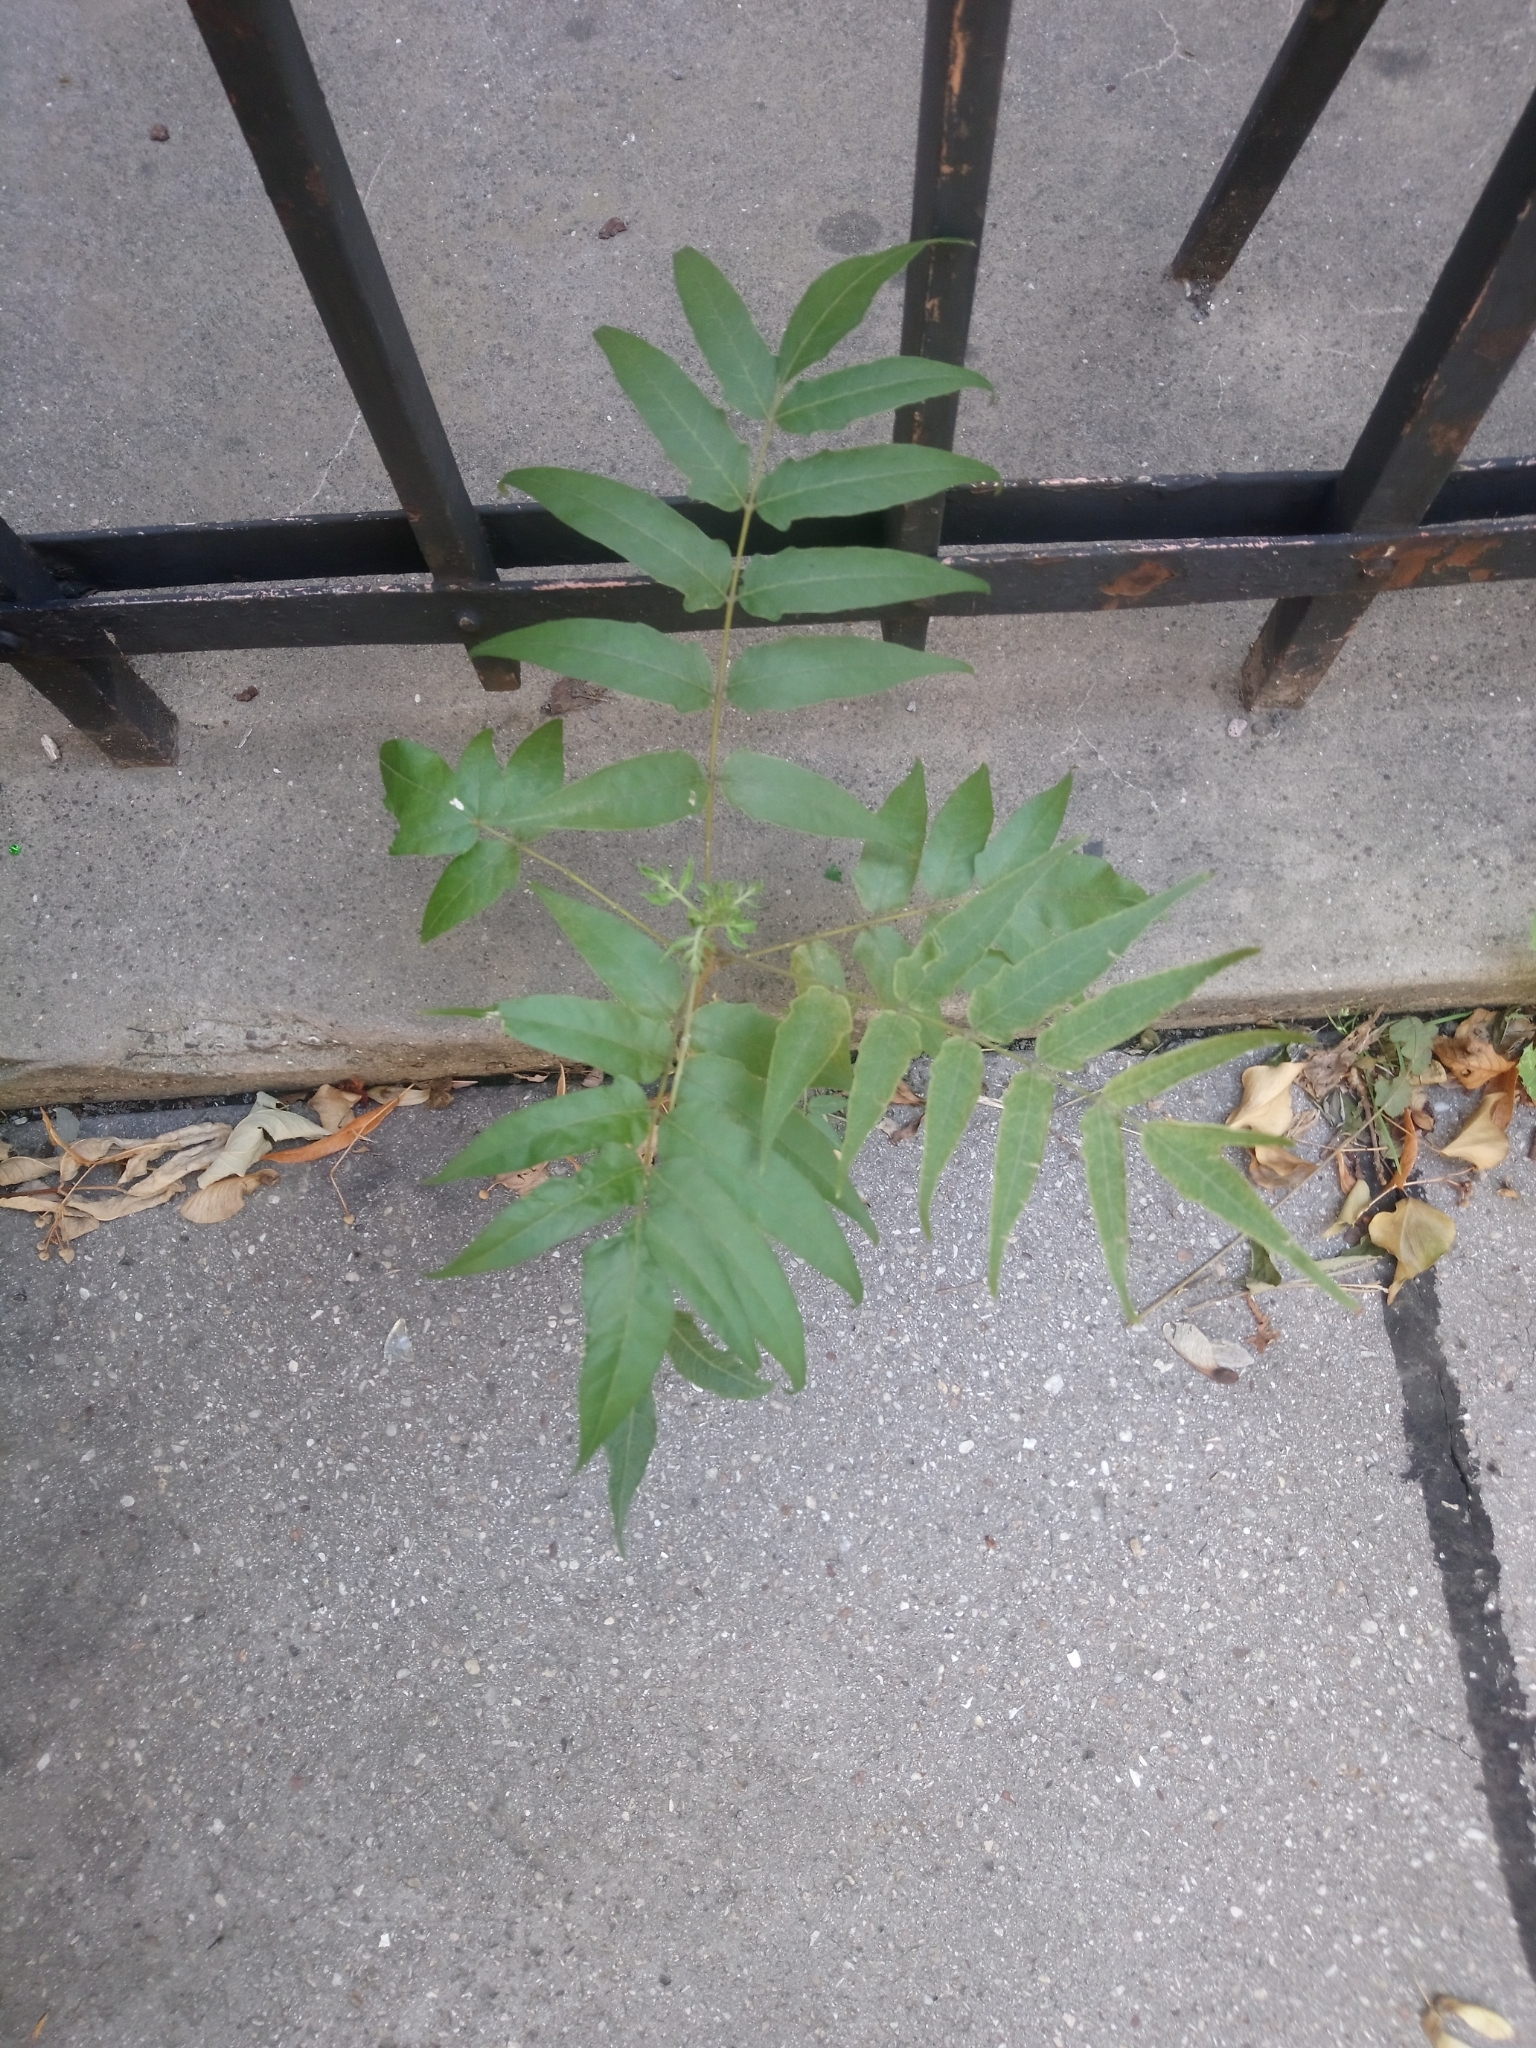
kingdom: Plantae
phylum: Tracheophyta
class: Magnoliopsida
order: Sapindales
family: Simaroubaceae
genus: Ailanthus
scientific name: Ailanthus altissima
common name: Tree-of-heaven
